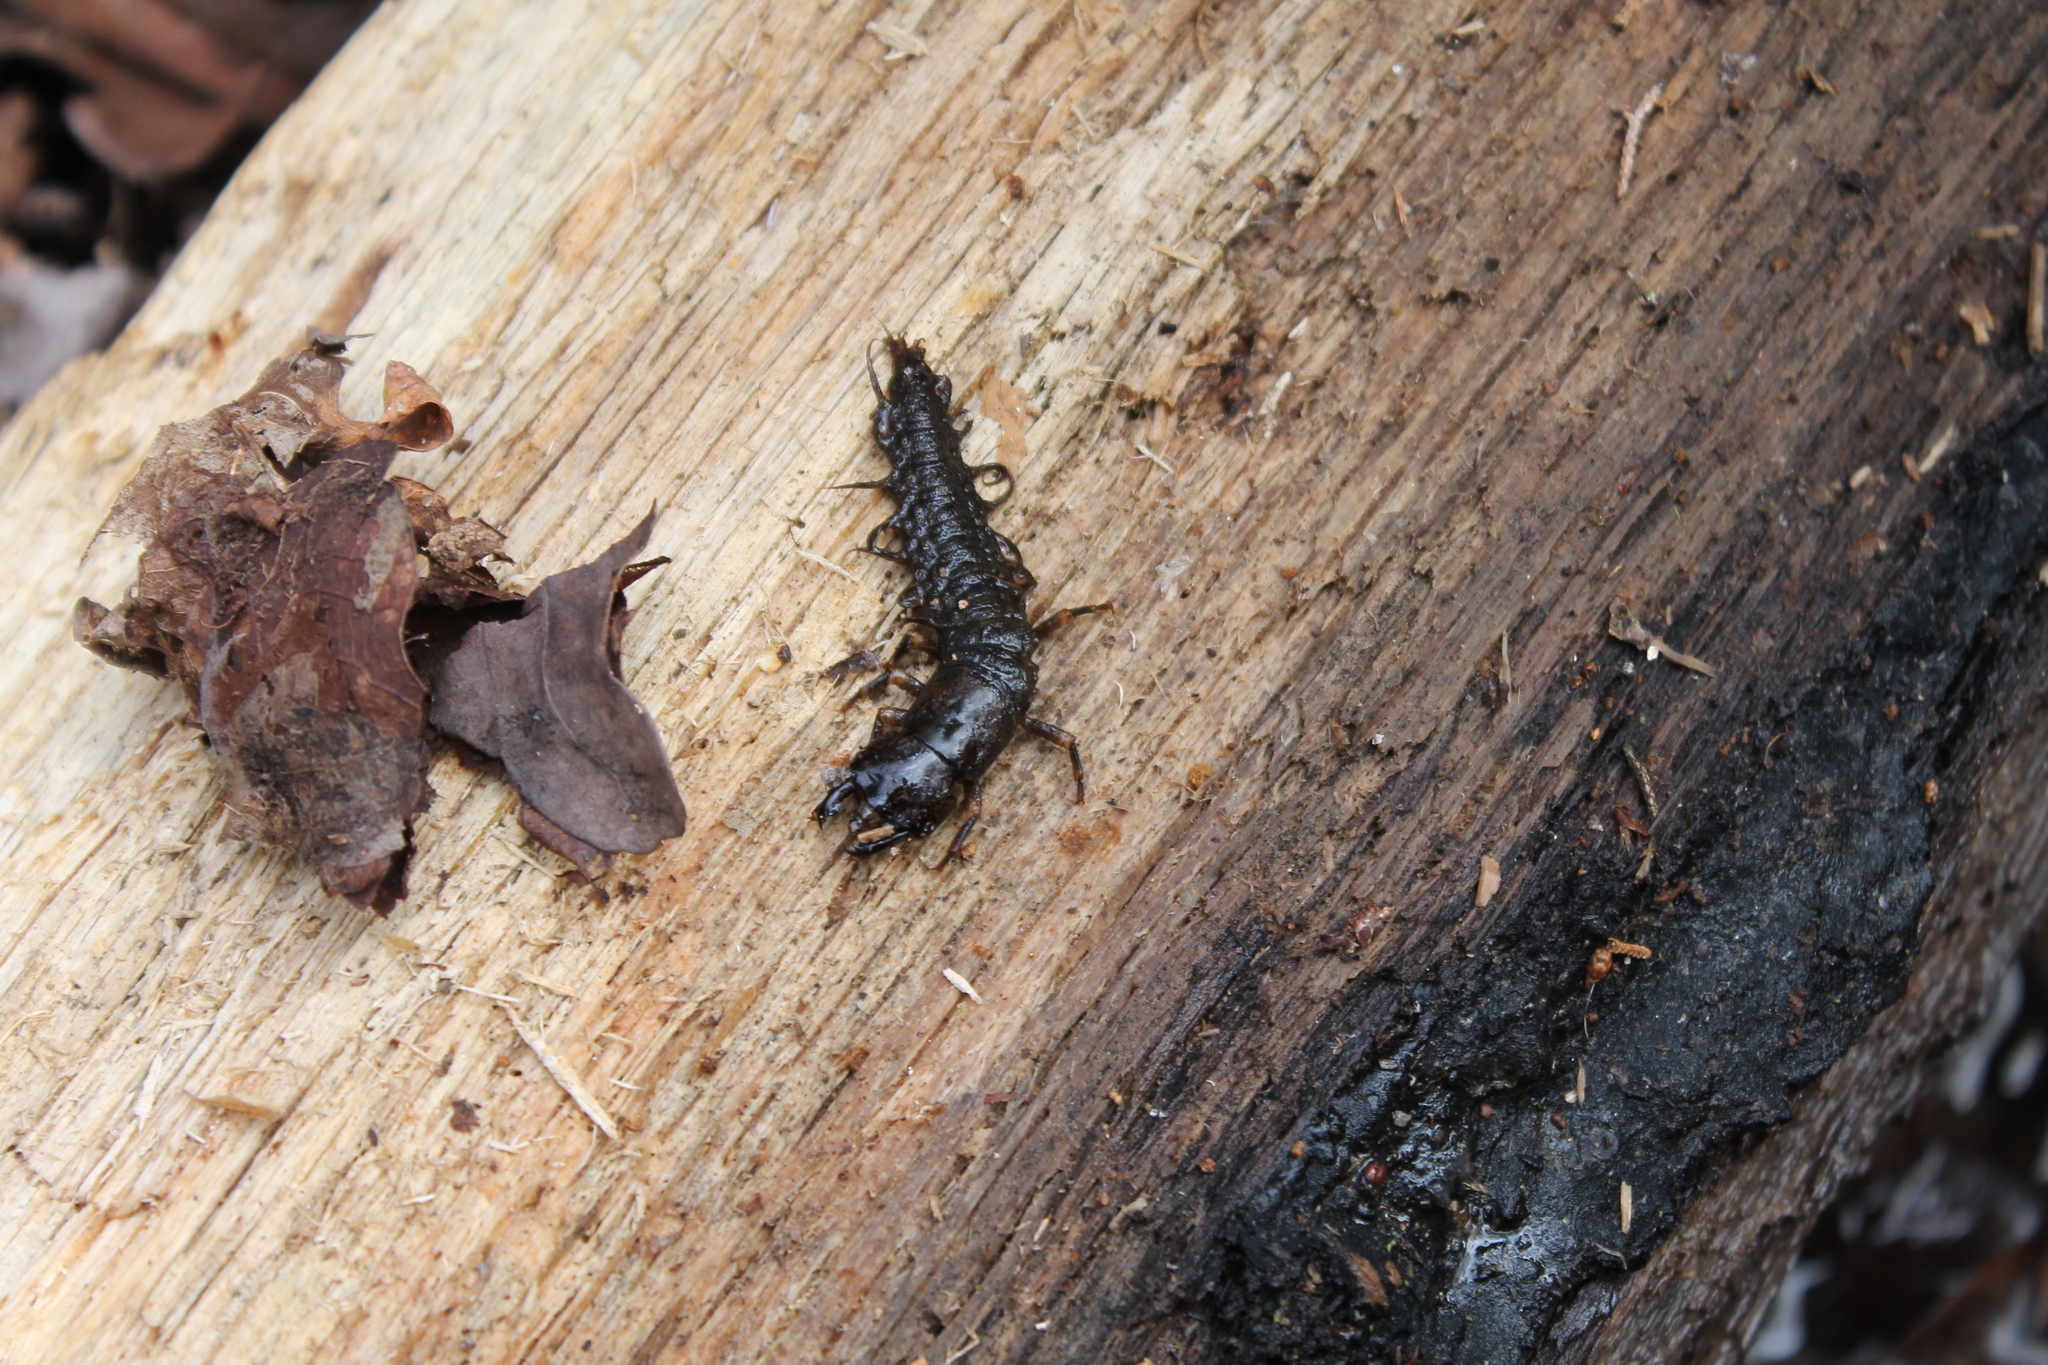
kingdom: Animalia
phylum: Arthropoda
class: Insecta
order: Megaloptera
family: Corydalidae
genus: Corydalus
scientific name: Corydalus cornutus
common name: Dobsonfly
